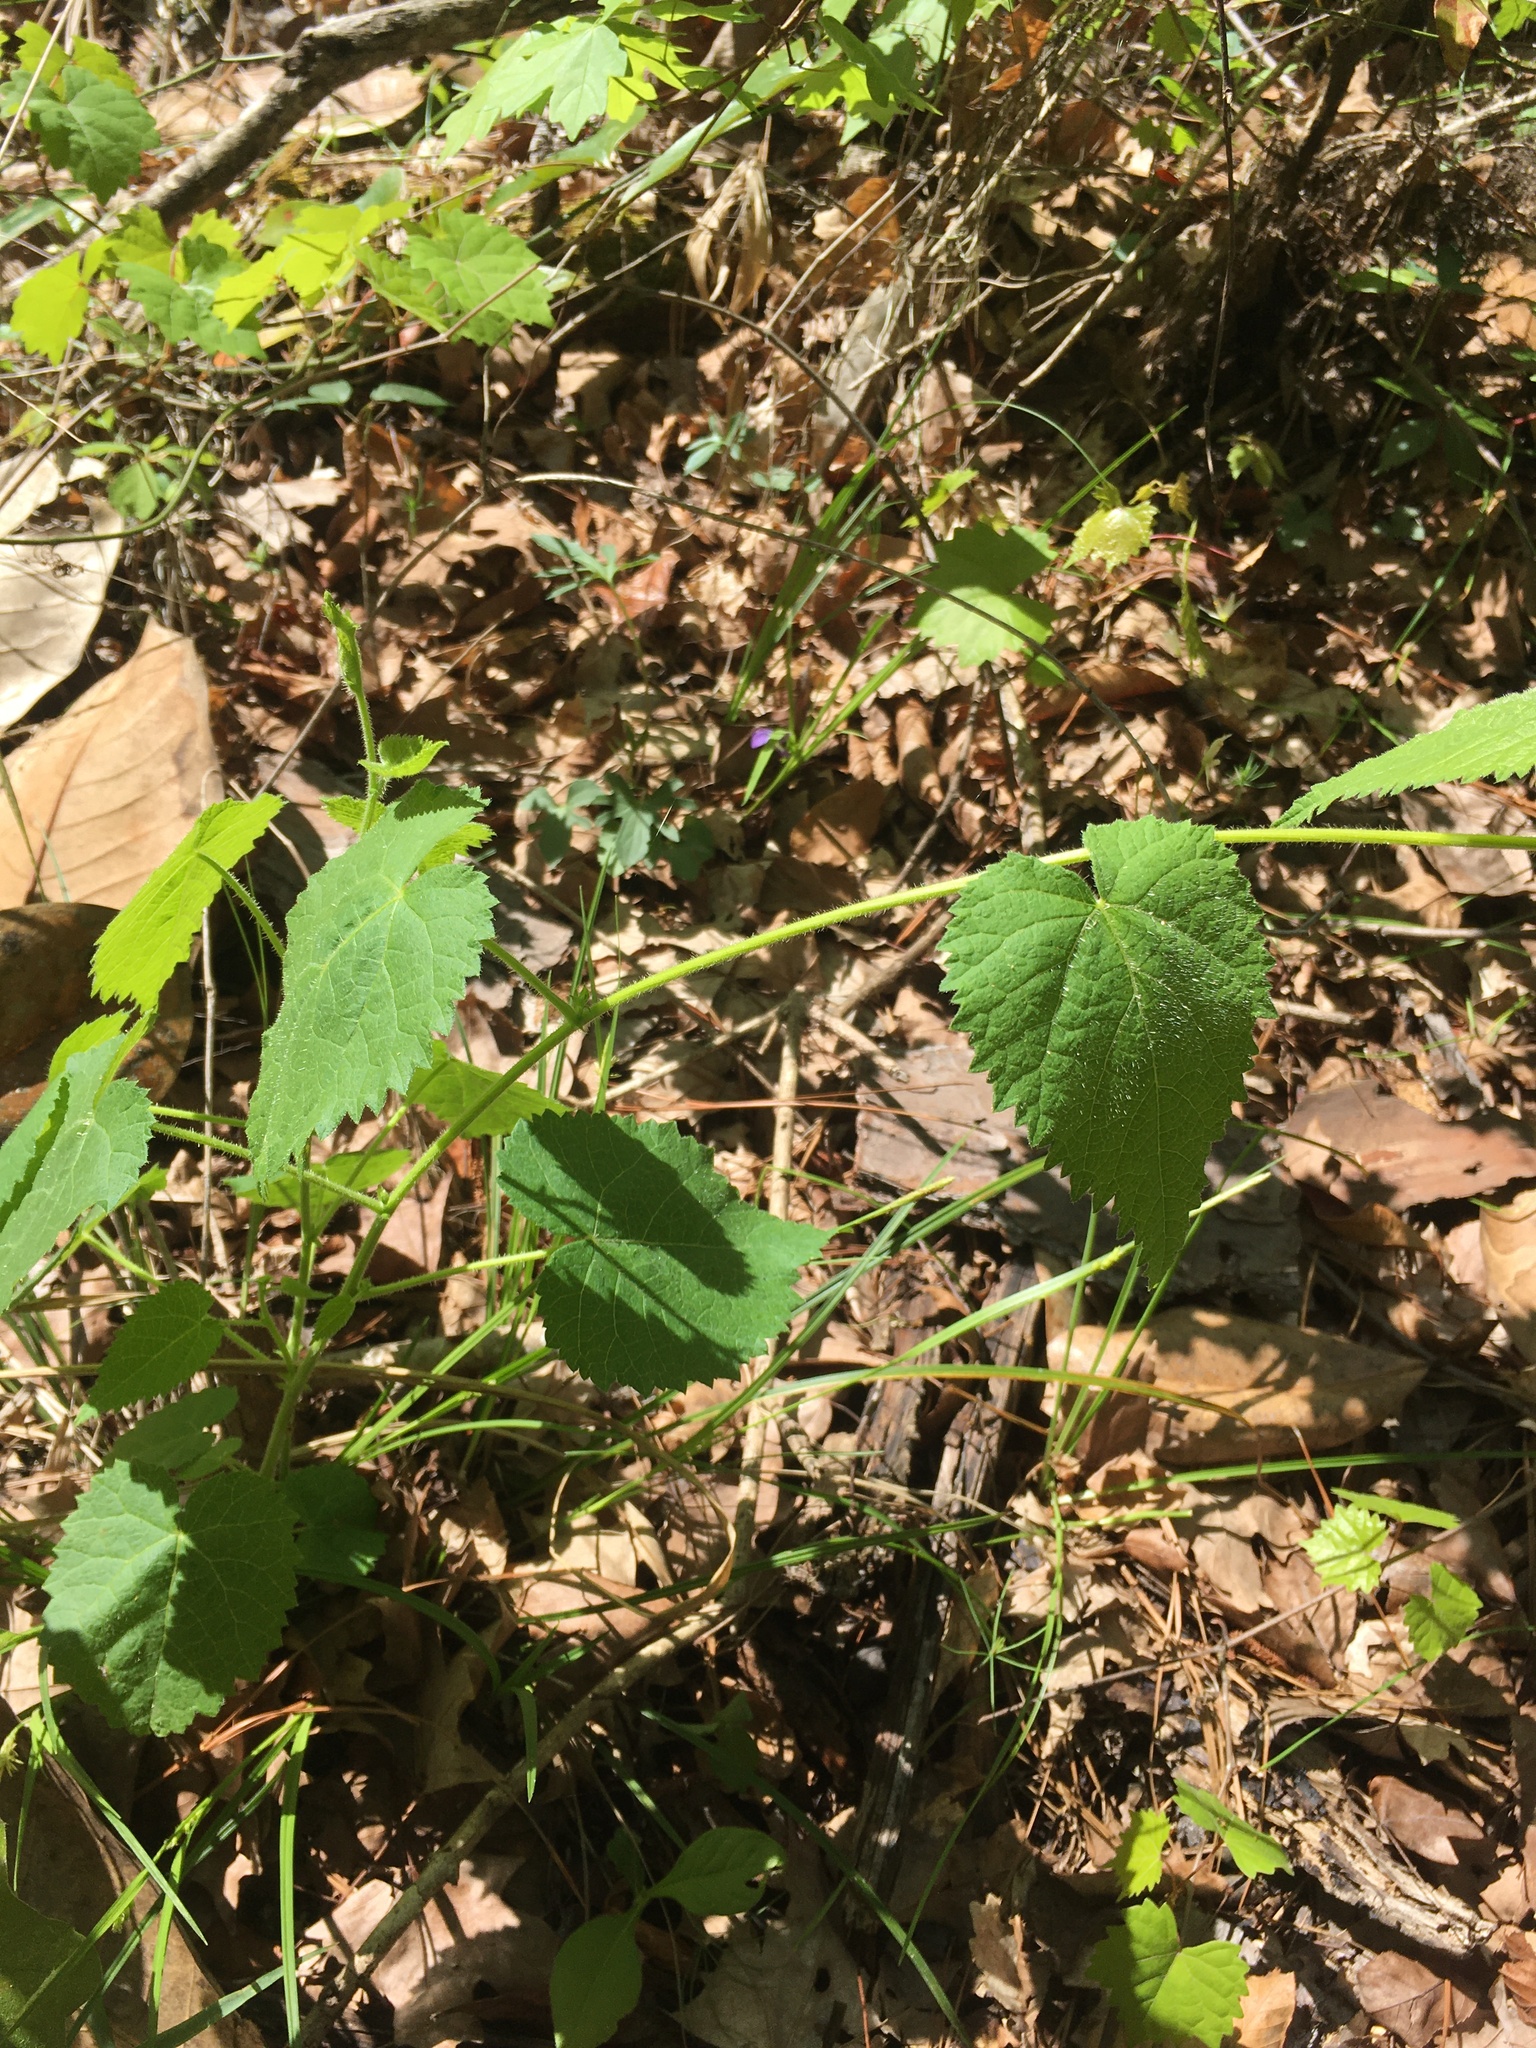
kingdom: Plantae
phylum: Tracheophyta
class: Magnoliopsida
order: Malpighiales
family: Euphorbiaceae
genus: Tragia
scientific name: Tragia cordata
